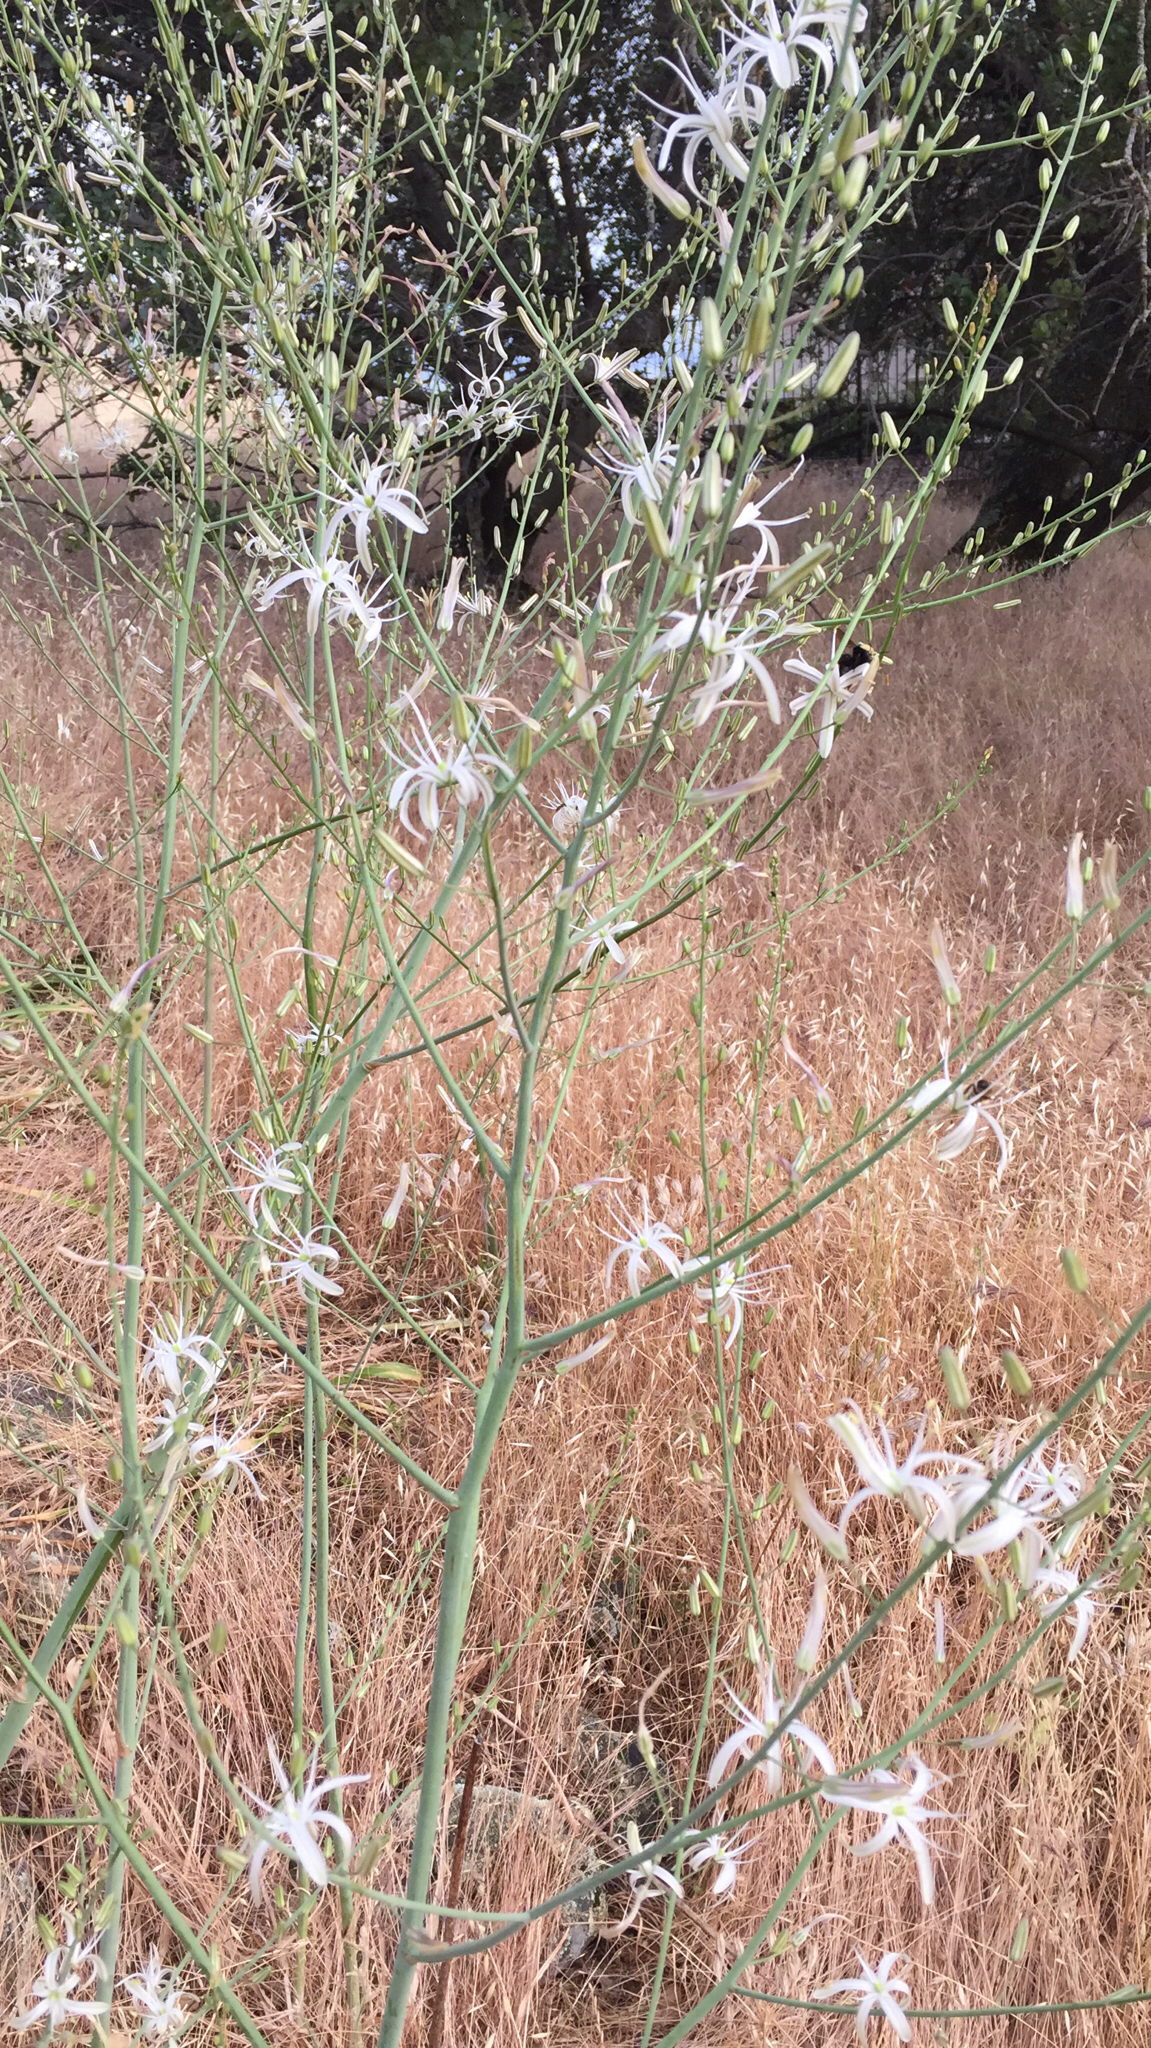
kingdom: Plantae
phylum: Tracheophyta
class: Liliopsida
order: Asparagales
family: Asparagaceae
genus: Chlorogalum
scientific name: Chlorogalum pomeridianum
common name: Amole
